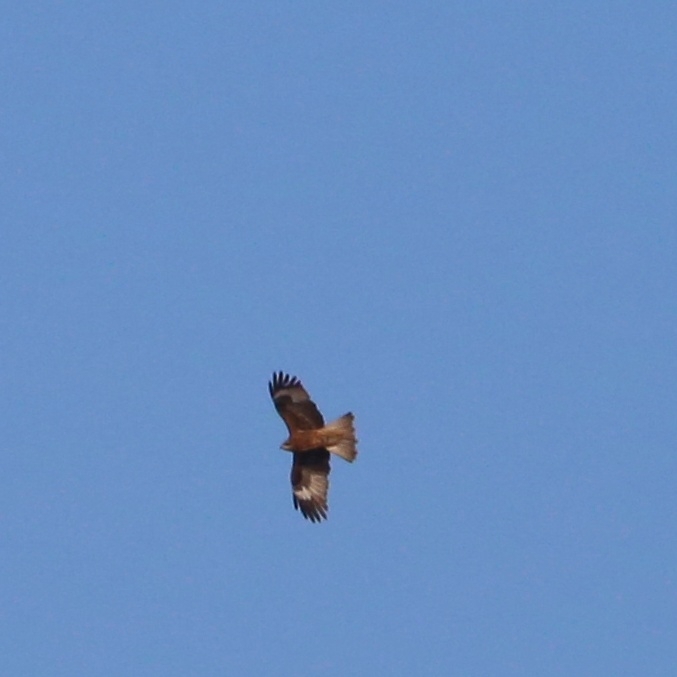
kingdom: Animalia
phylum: Chordata
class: Aves
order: Accipitriformes
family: Accipitridae
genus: Milvus
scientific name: Milvus migrans
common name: Black kite
